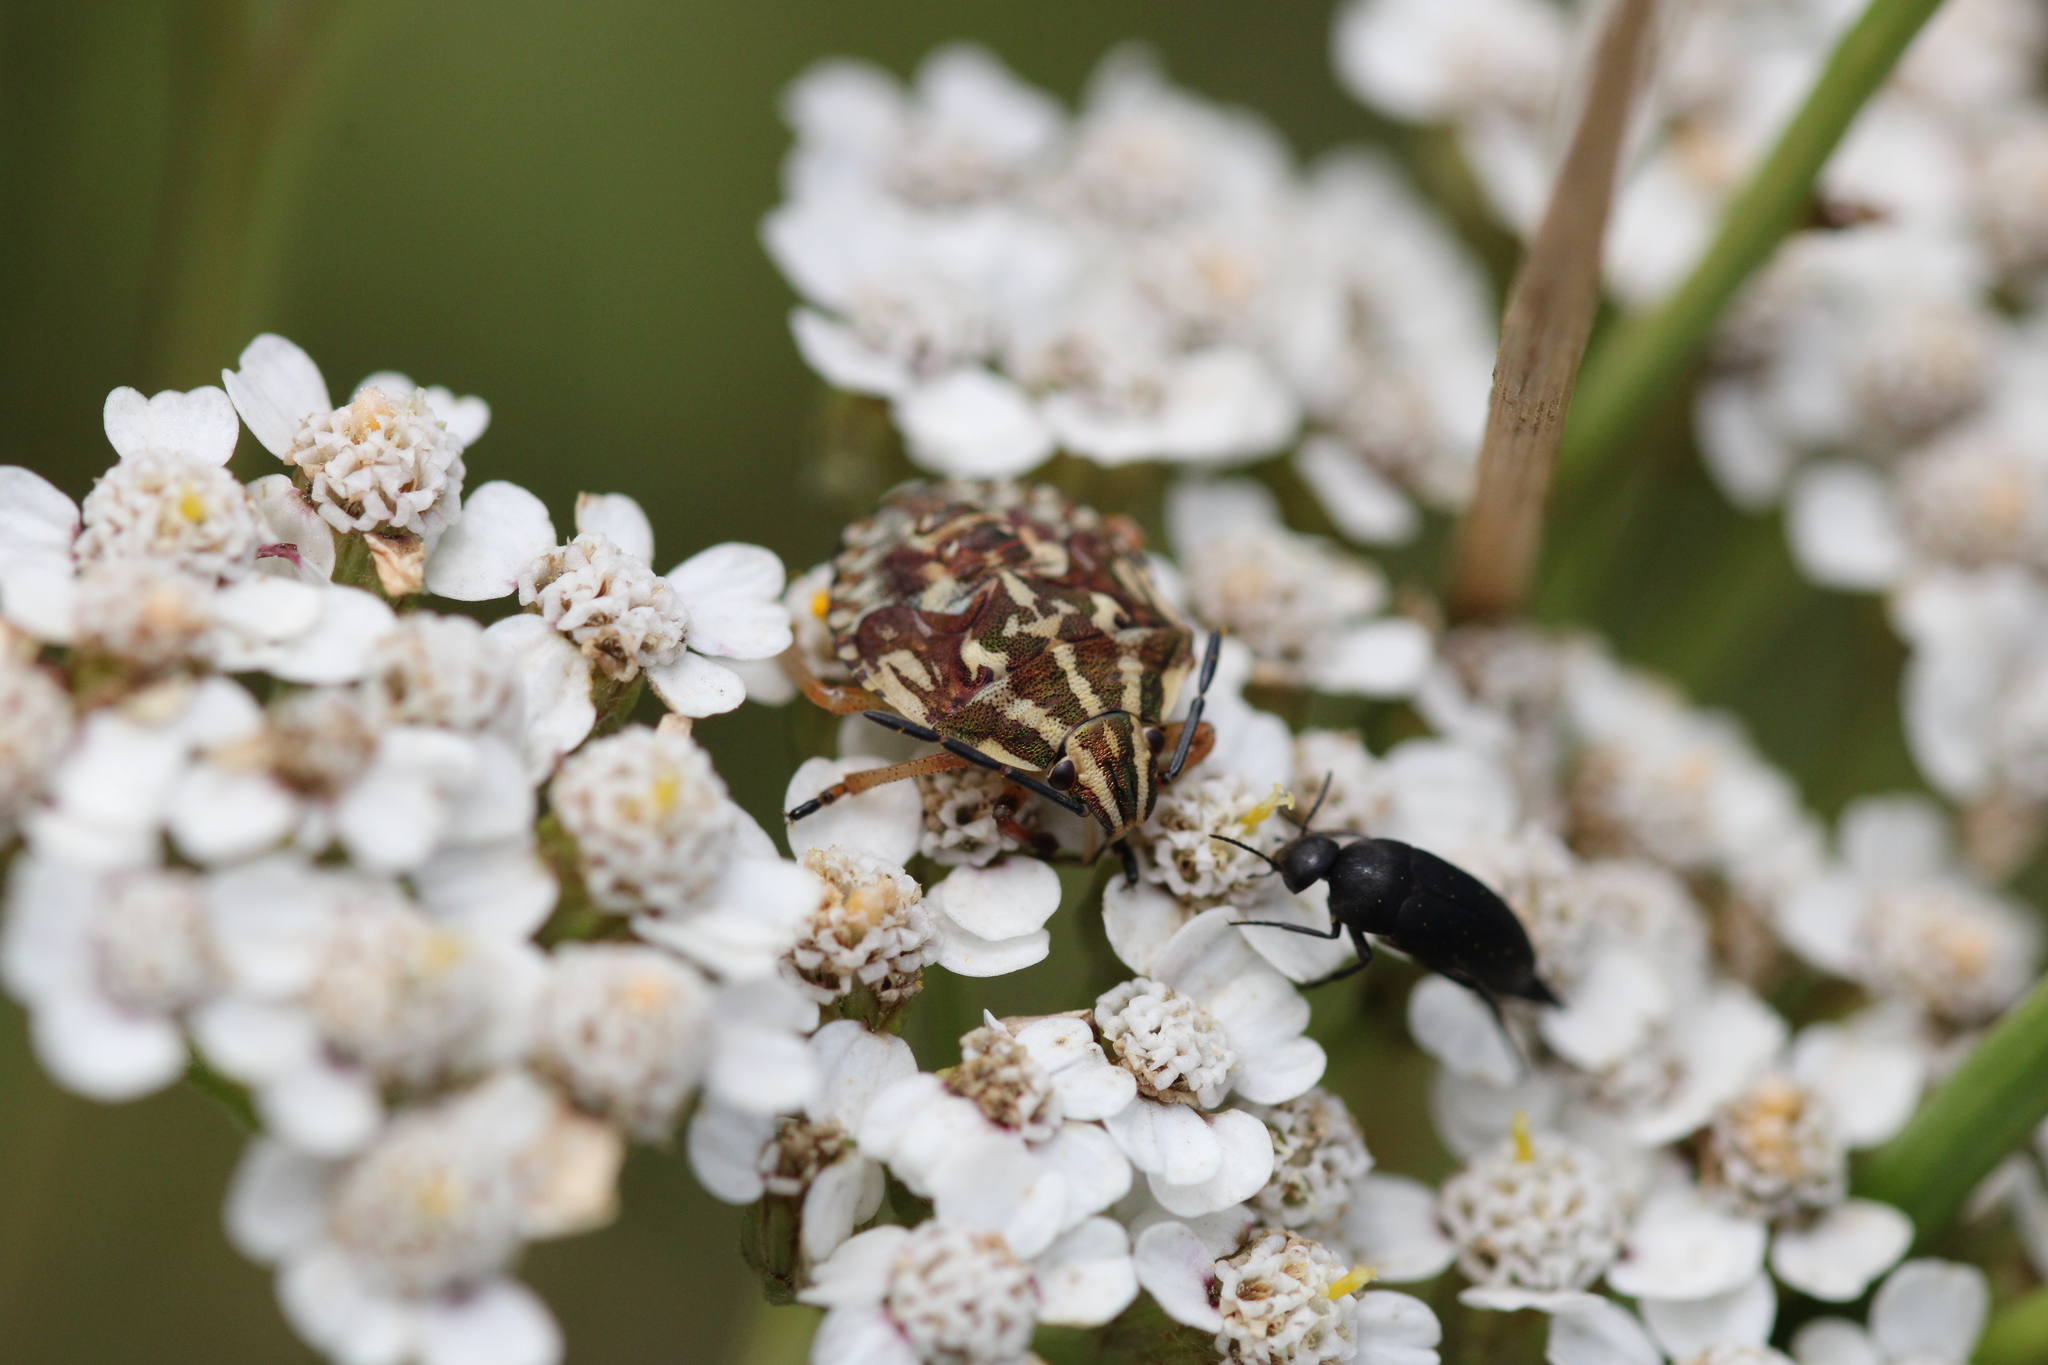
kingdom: Animalia
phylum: Arthropoda
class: Insecta
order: Hemiptera
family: Pentatomidae
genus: Carpocoris
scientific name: Carpocoris purpureipennis
